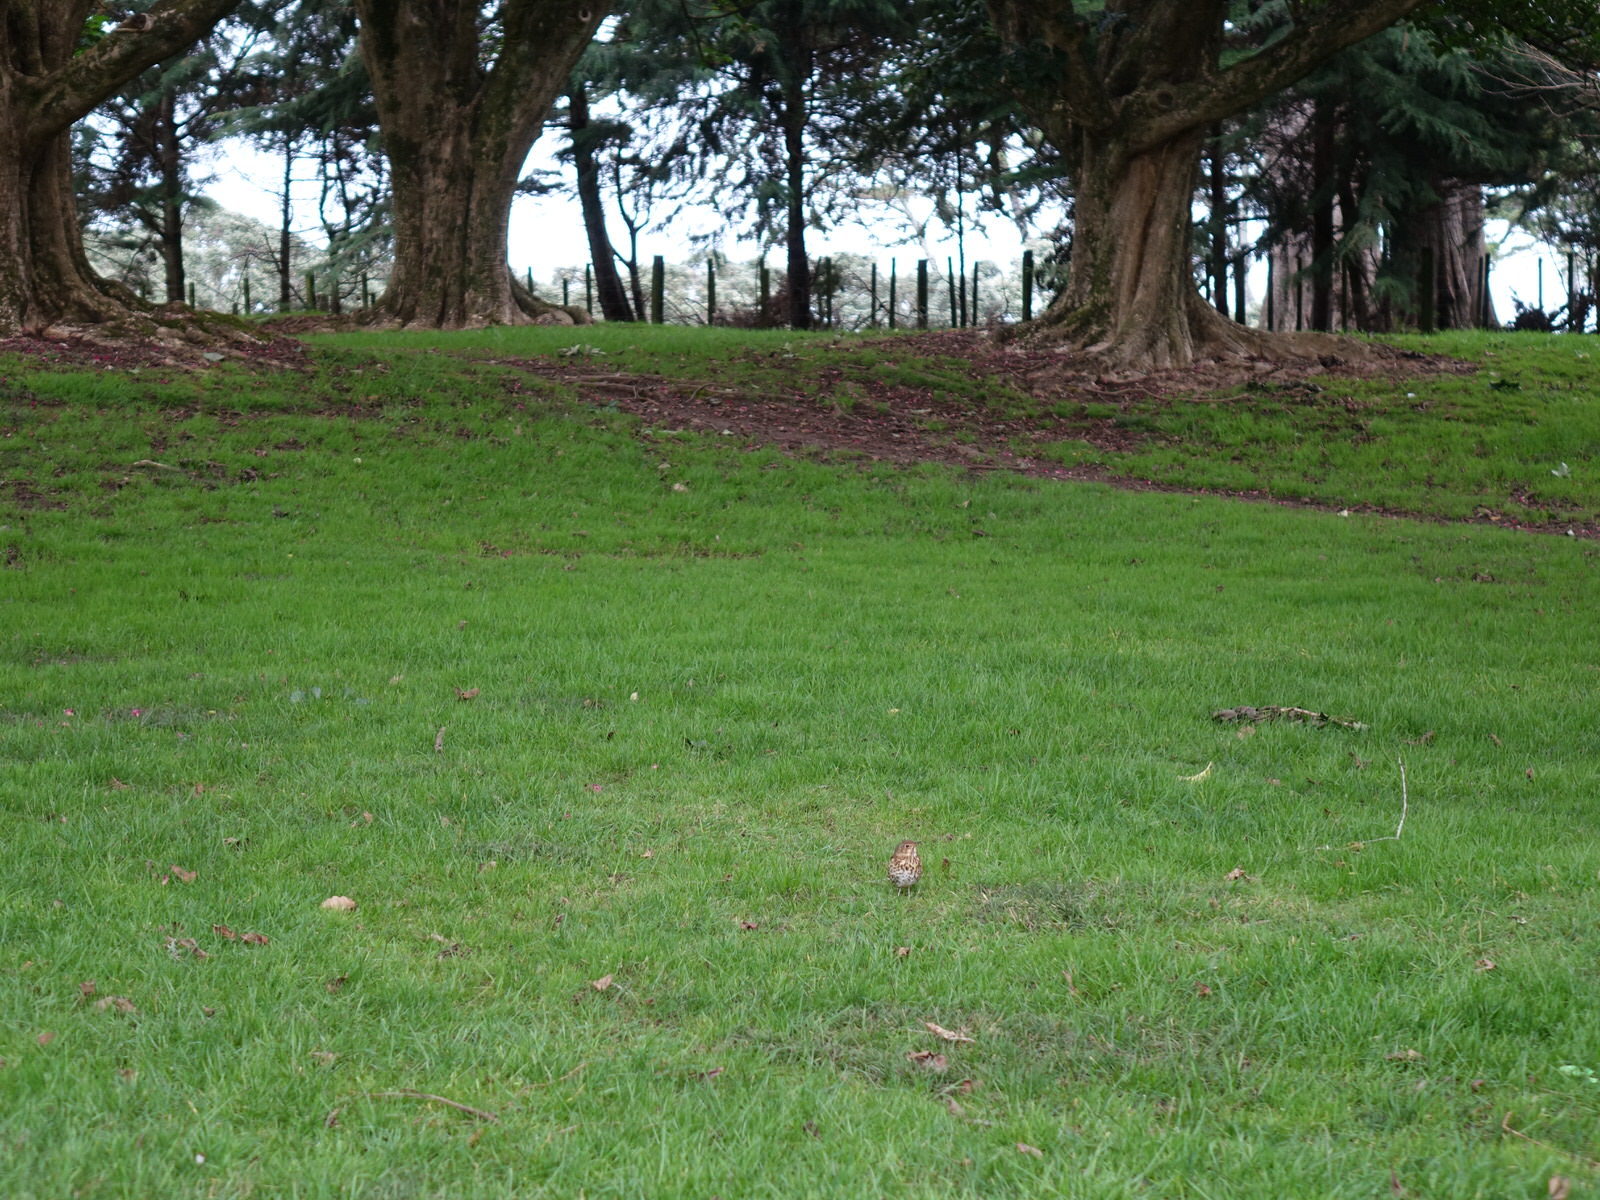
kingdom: Animalia
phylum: Chordata
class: Aves
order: Passeriformes
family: Turdidae
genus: Turdus
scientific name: Turdus philomelos
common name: Song thrush
